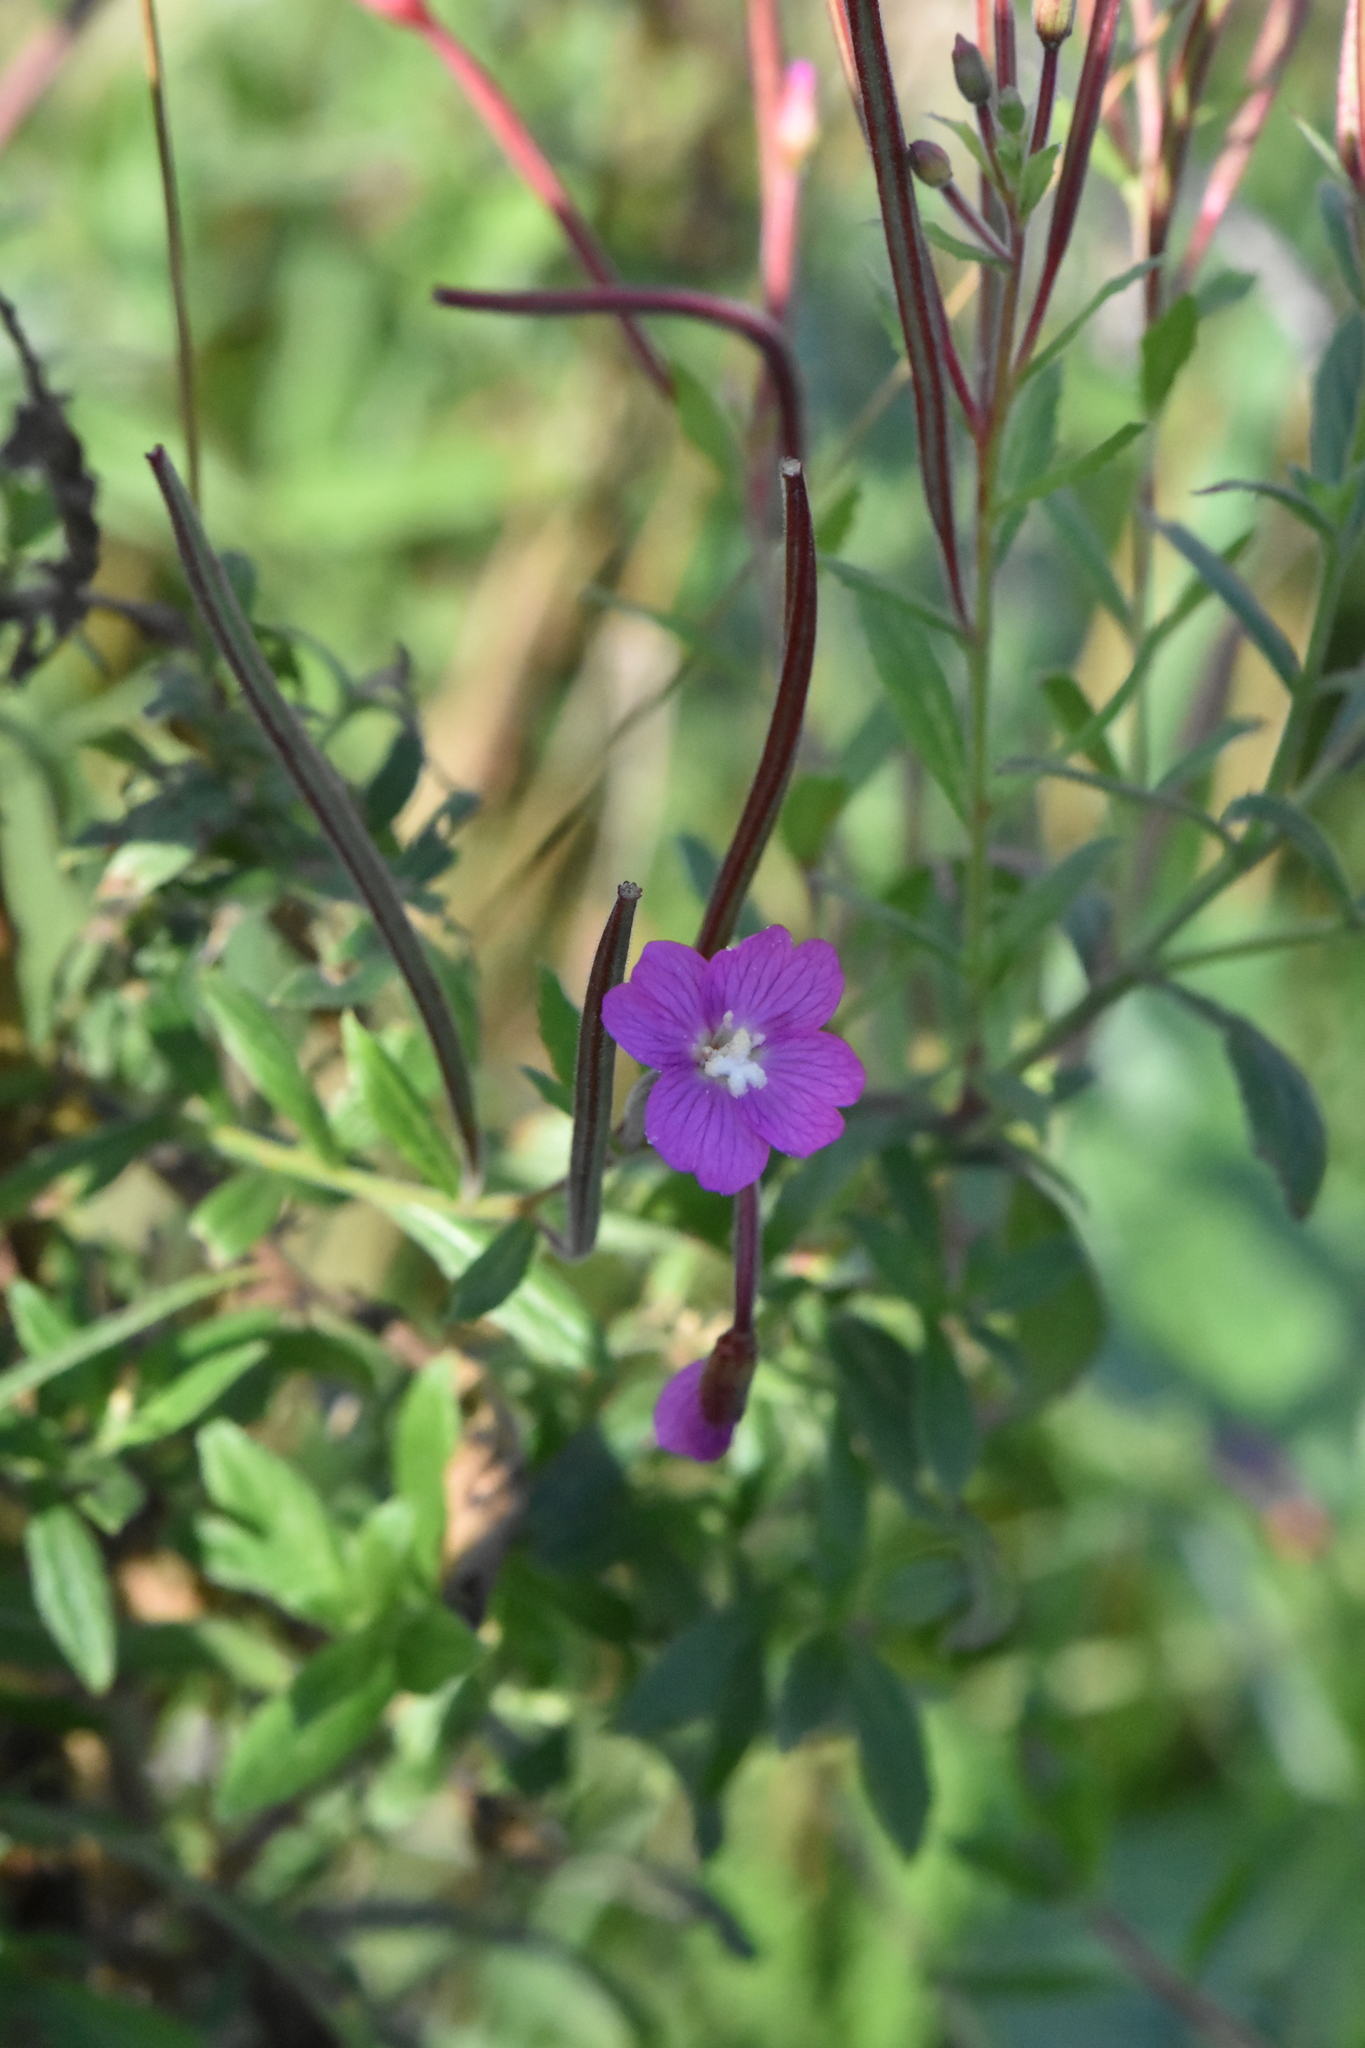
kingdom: Plantae
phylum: Tracheophyta
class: Magnoliopsida
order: Myrtales
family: Onagraceae
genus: Epilobium
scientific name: Epilobium hirsutum
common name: Great willowherb
